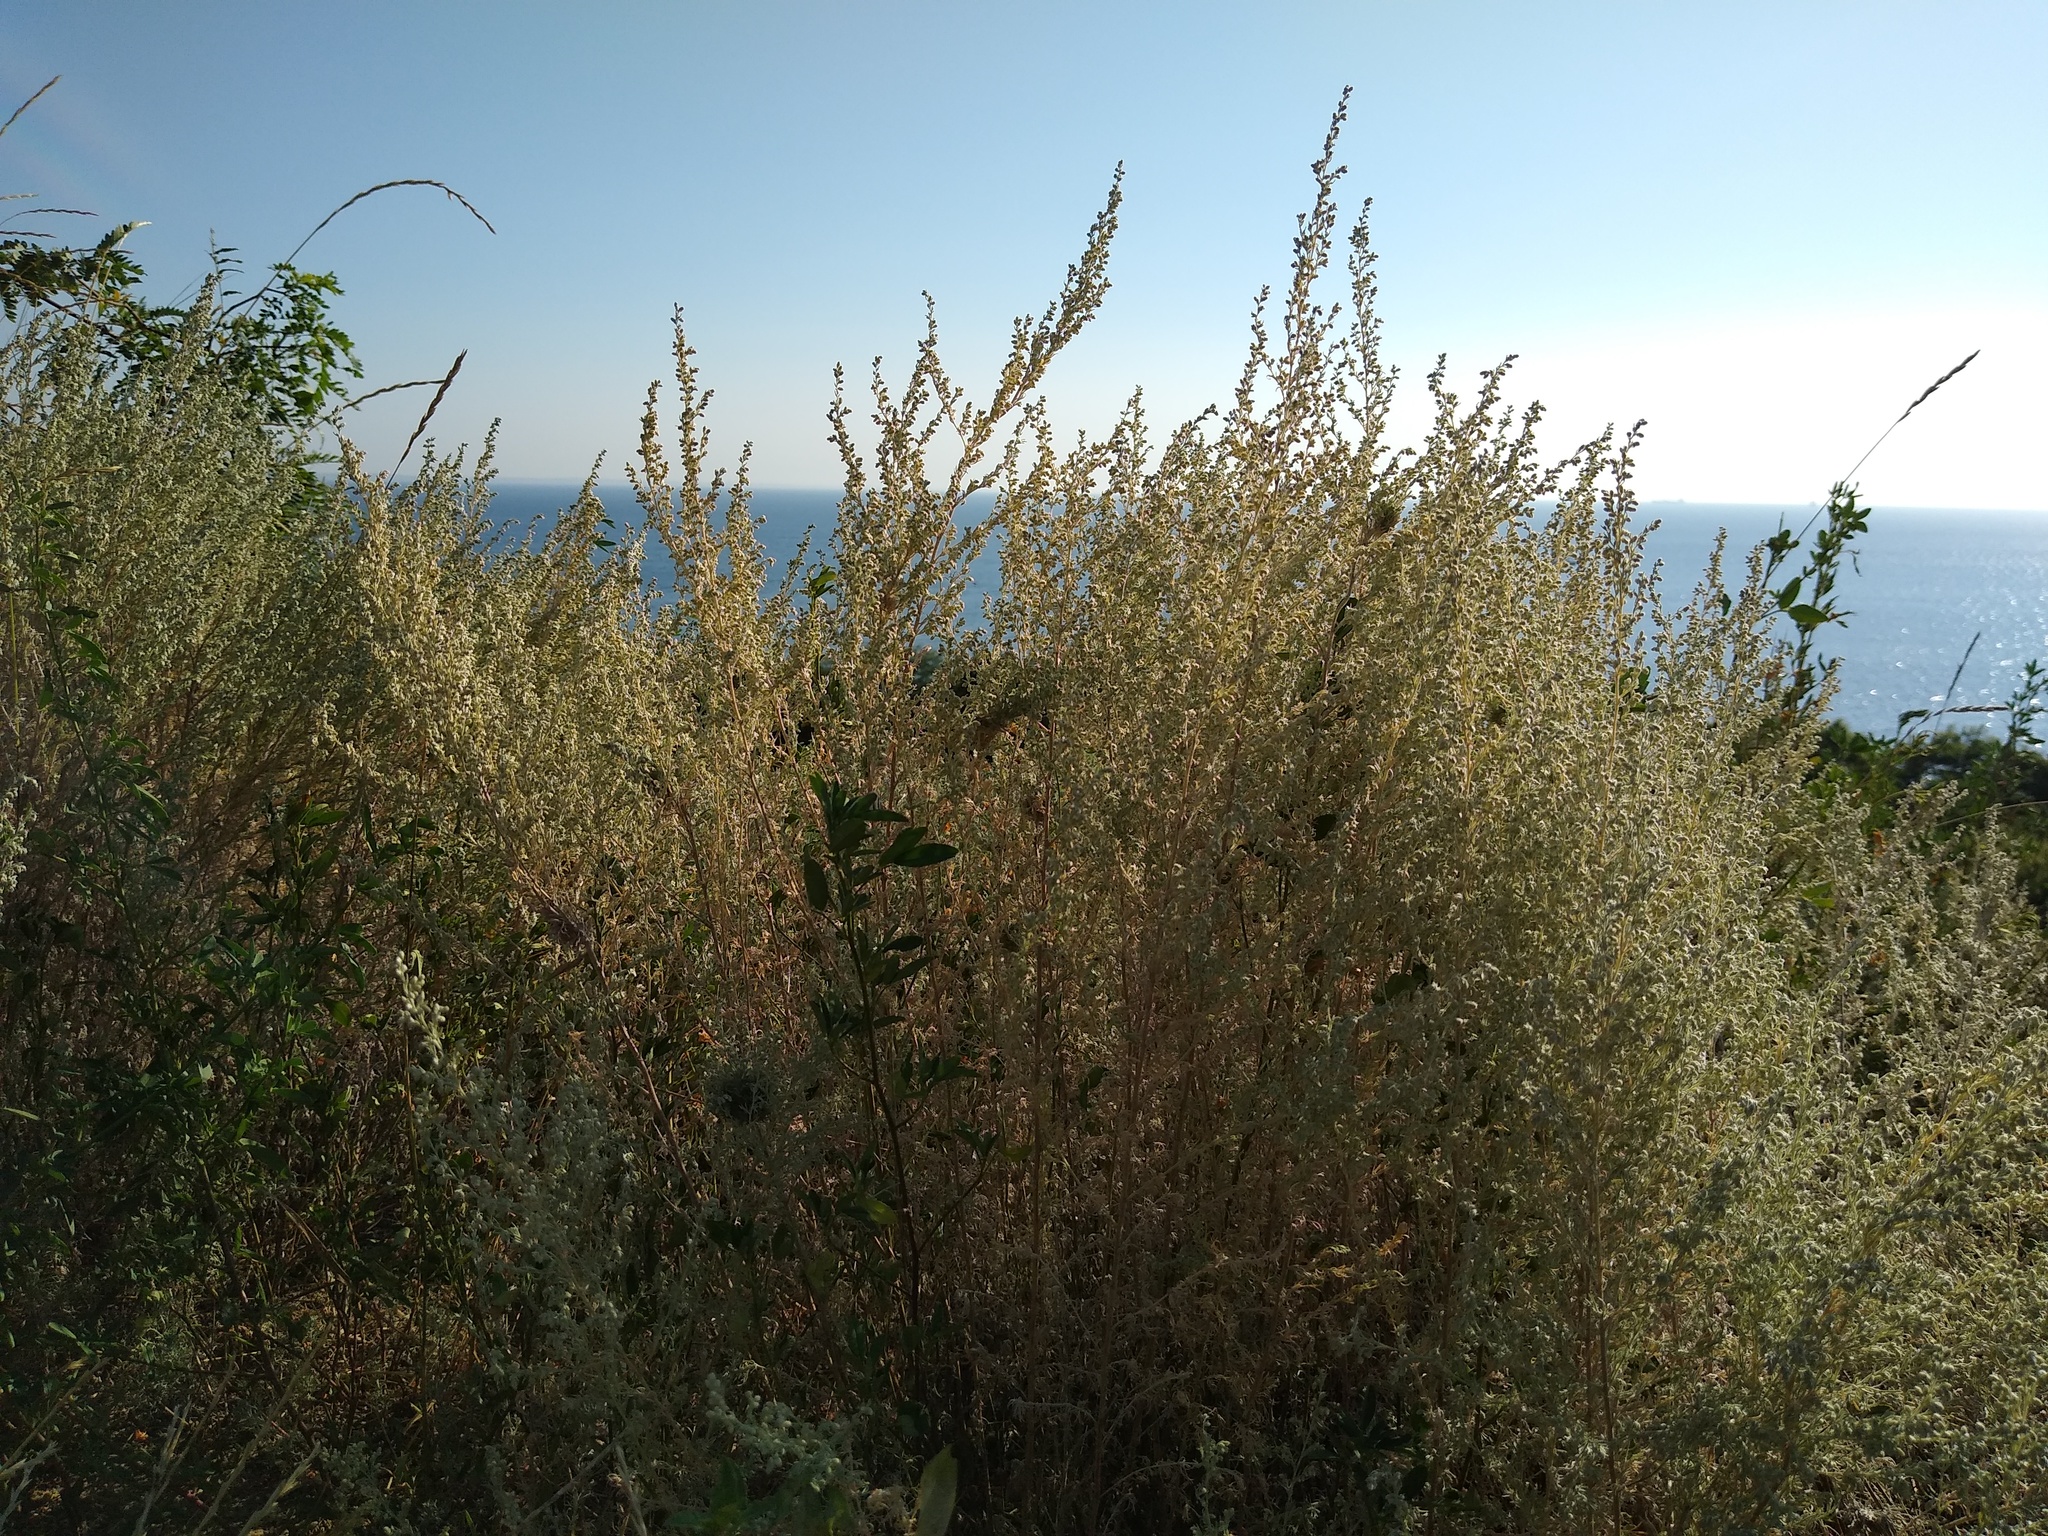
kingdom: Plantae
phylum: Tracheophyta
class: Magnoliopsida
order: Asterales
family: Asteraceae
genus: Artemisia
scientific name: Artemisia austriaca
